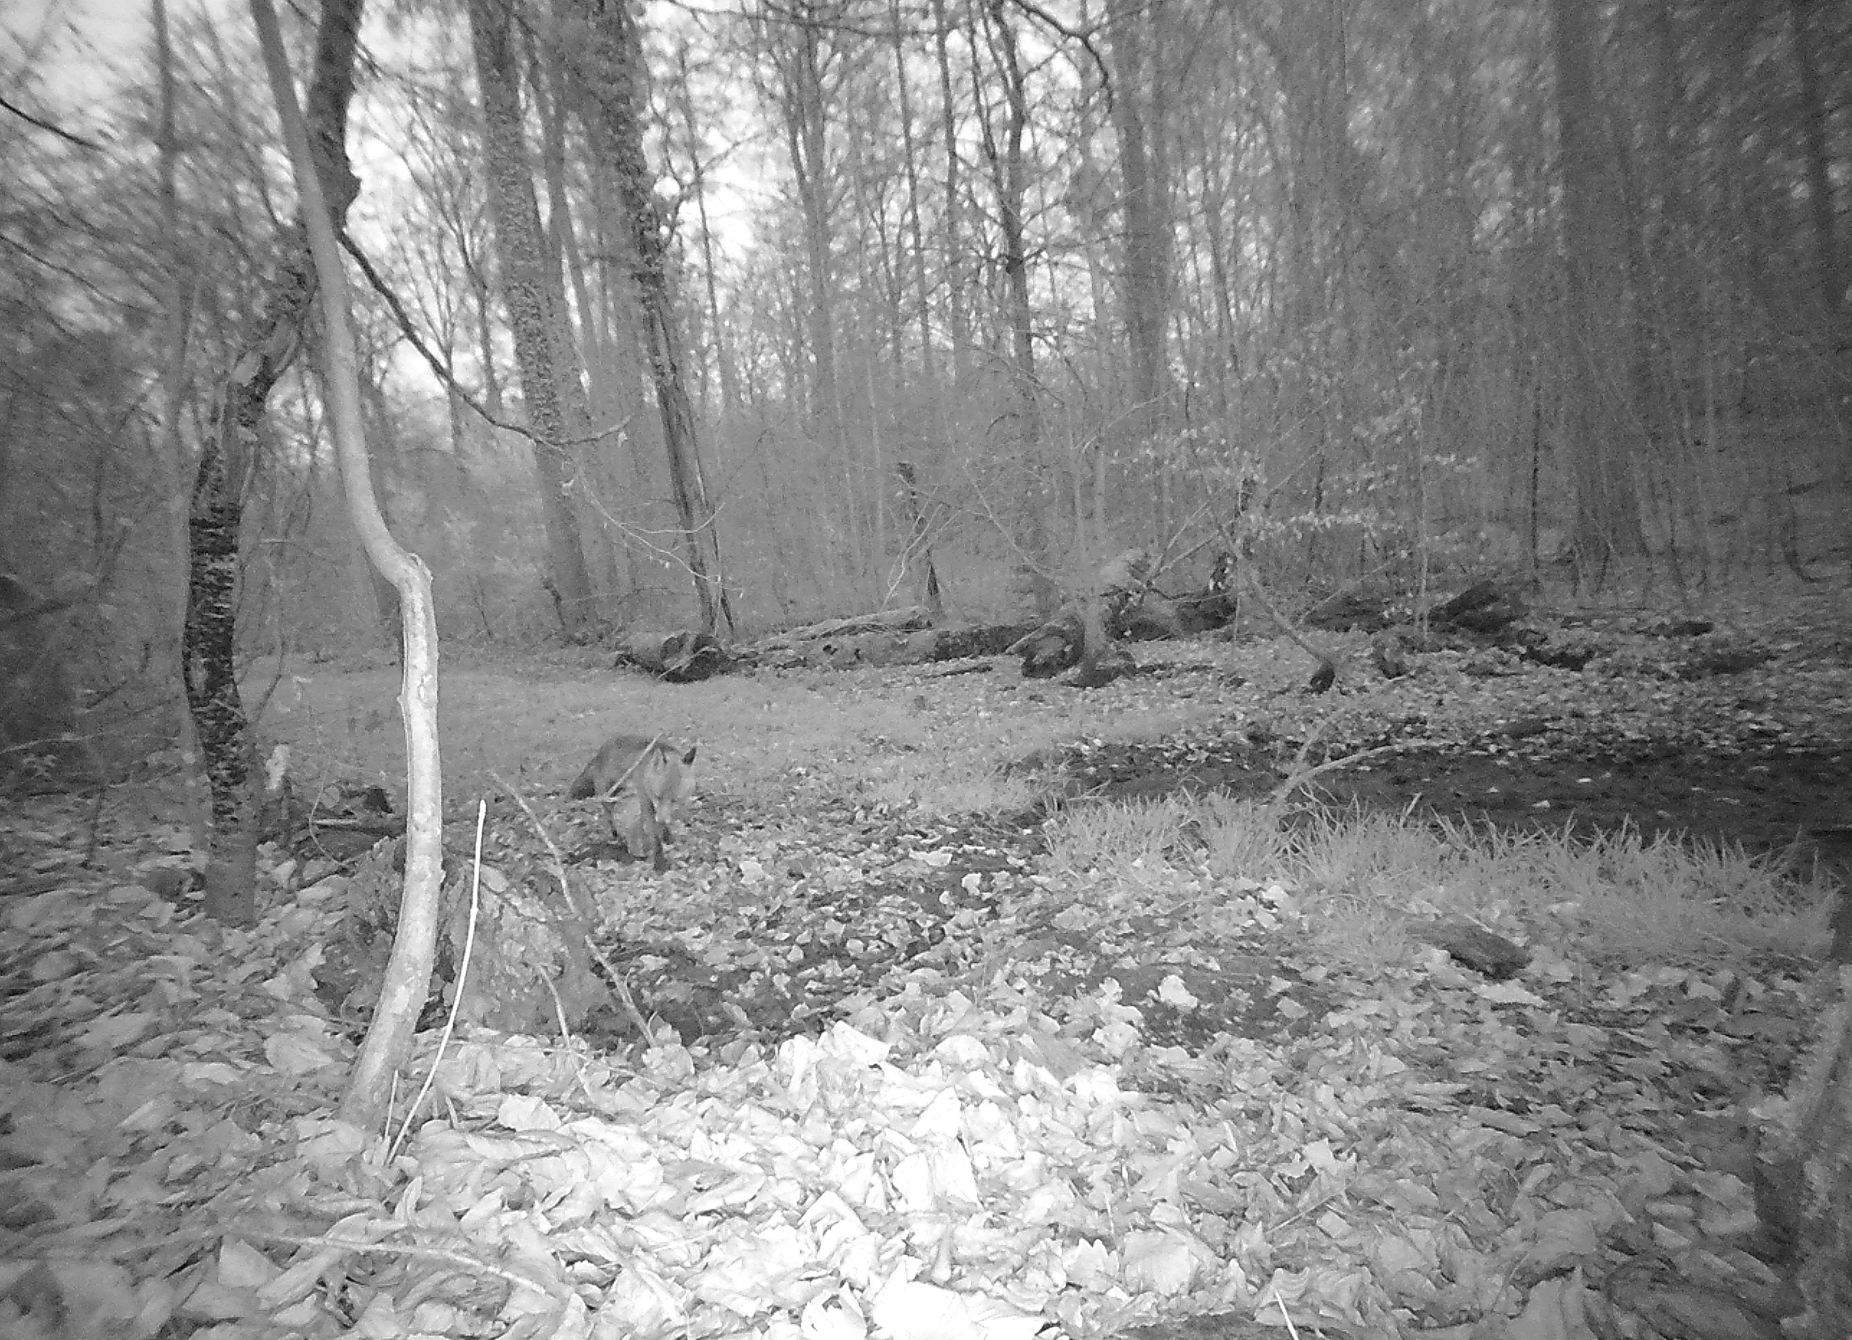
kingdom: Animalia
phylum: Chordata
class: Mammalia
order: Carnivora
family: Canidae
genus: Vulpes
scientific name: Vulpes vulpes
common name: Red fox
